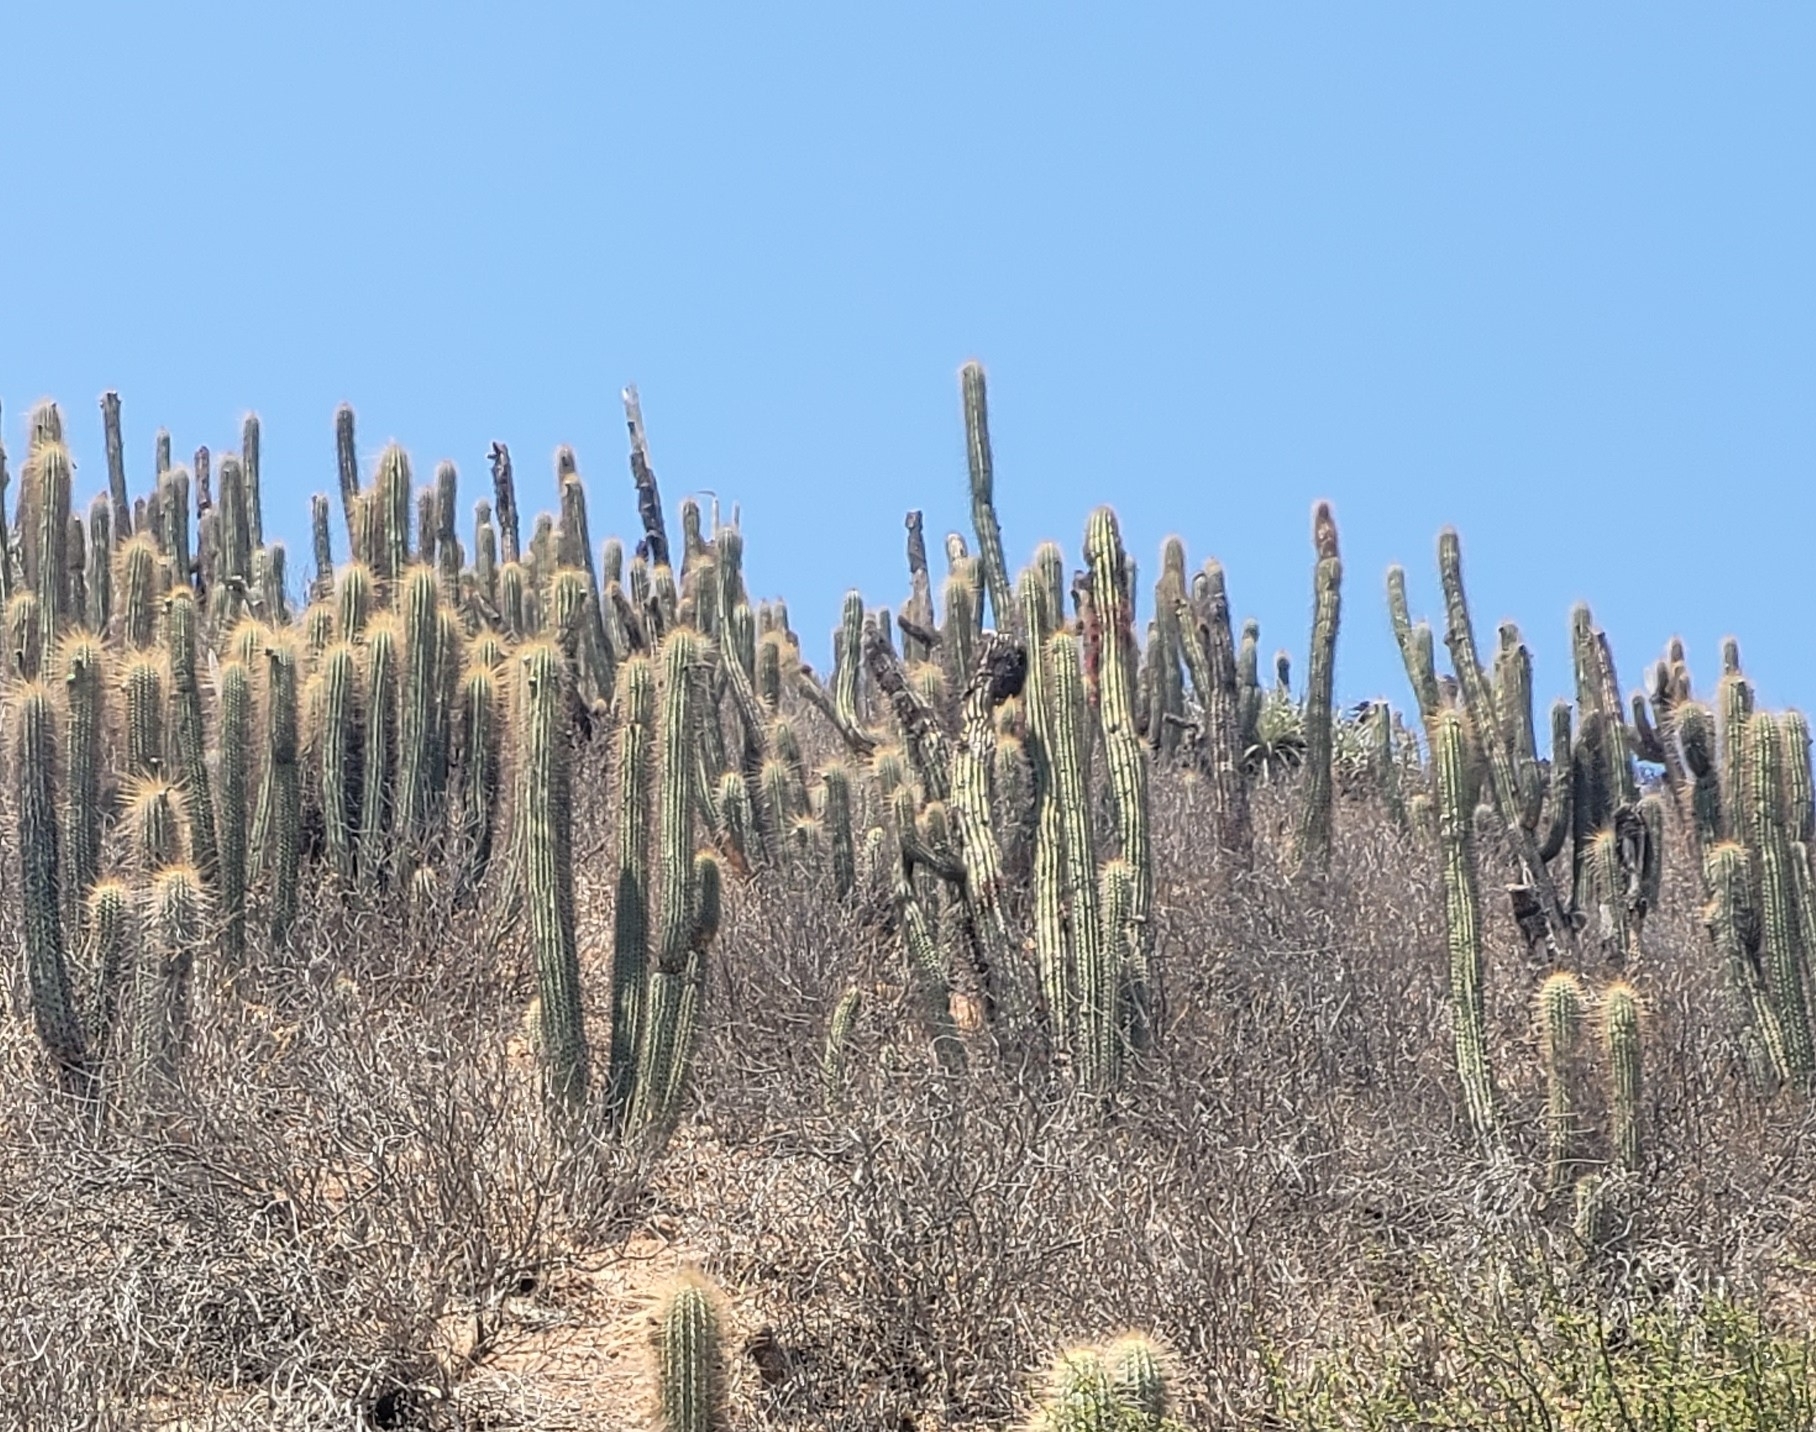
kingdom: Plantae
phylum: Tracheophyta
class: Magnoliopsida
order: Caryophyllales
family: Cactaceae
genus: Leucostele
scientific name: Leucostele chiloensis
